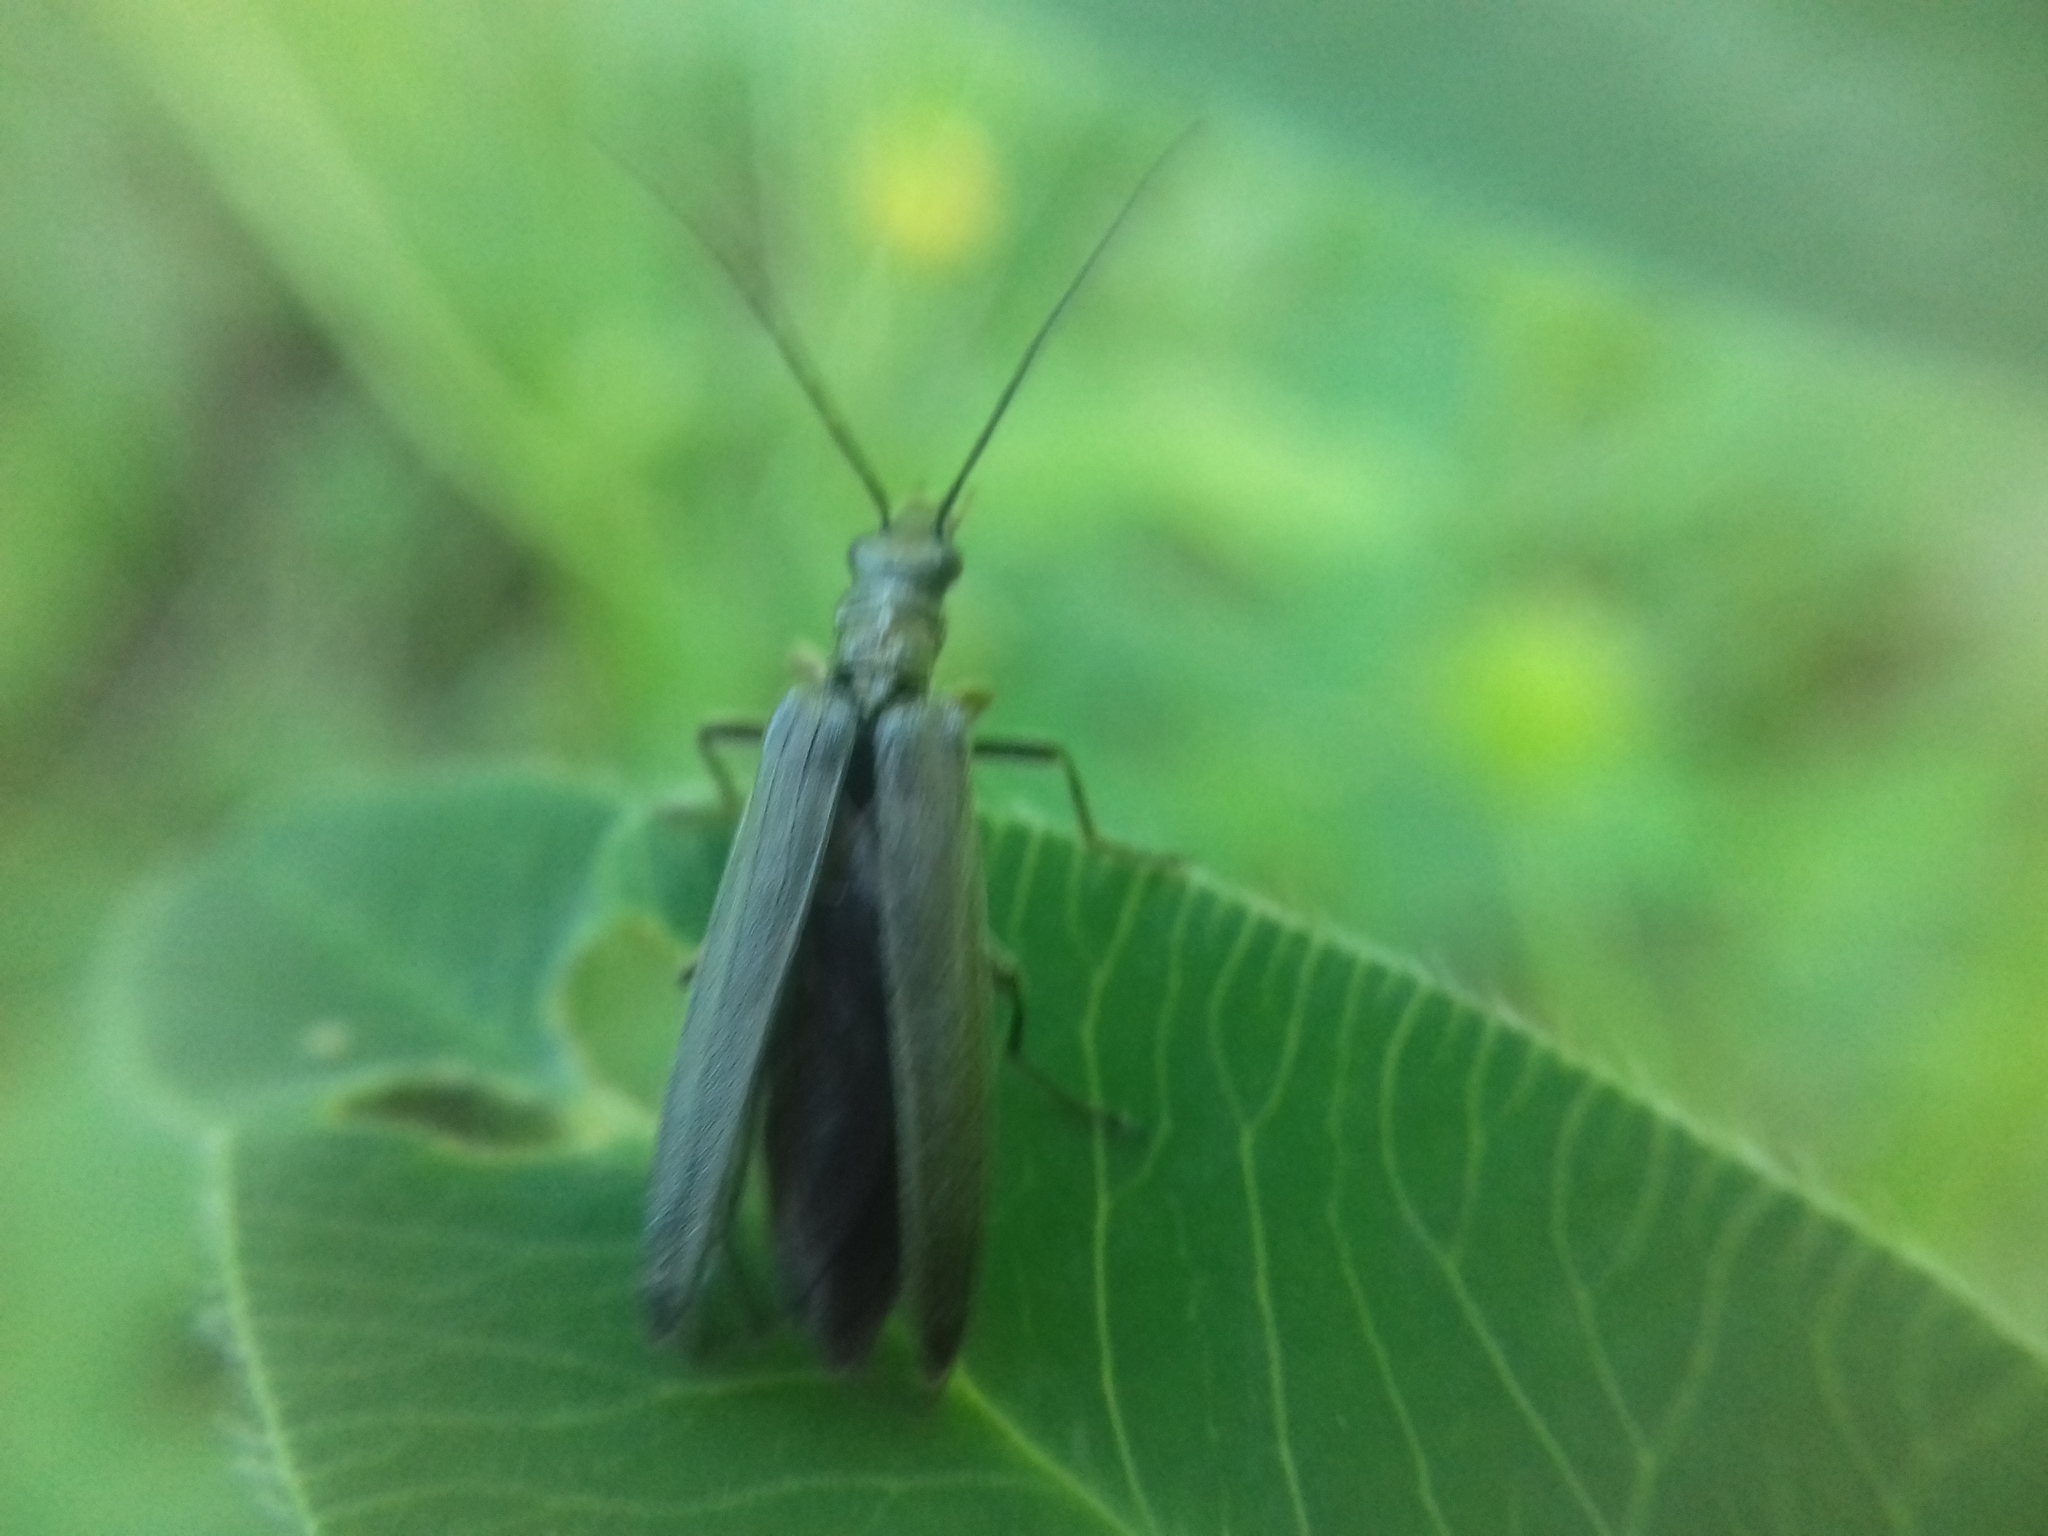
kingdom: Animalia
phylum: Arthropoda
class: Insecta
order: Coleoptera
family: Oedemeridae
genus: Oedemera
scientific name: Oedemera lurida
